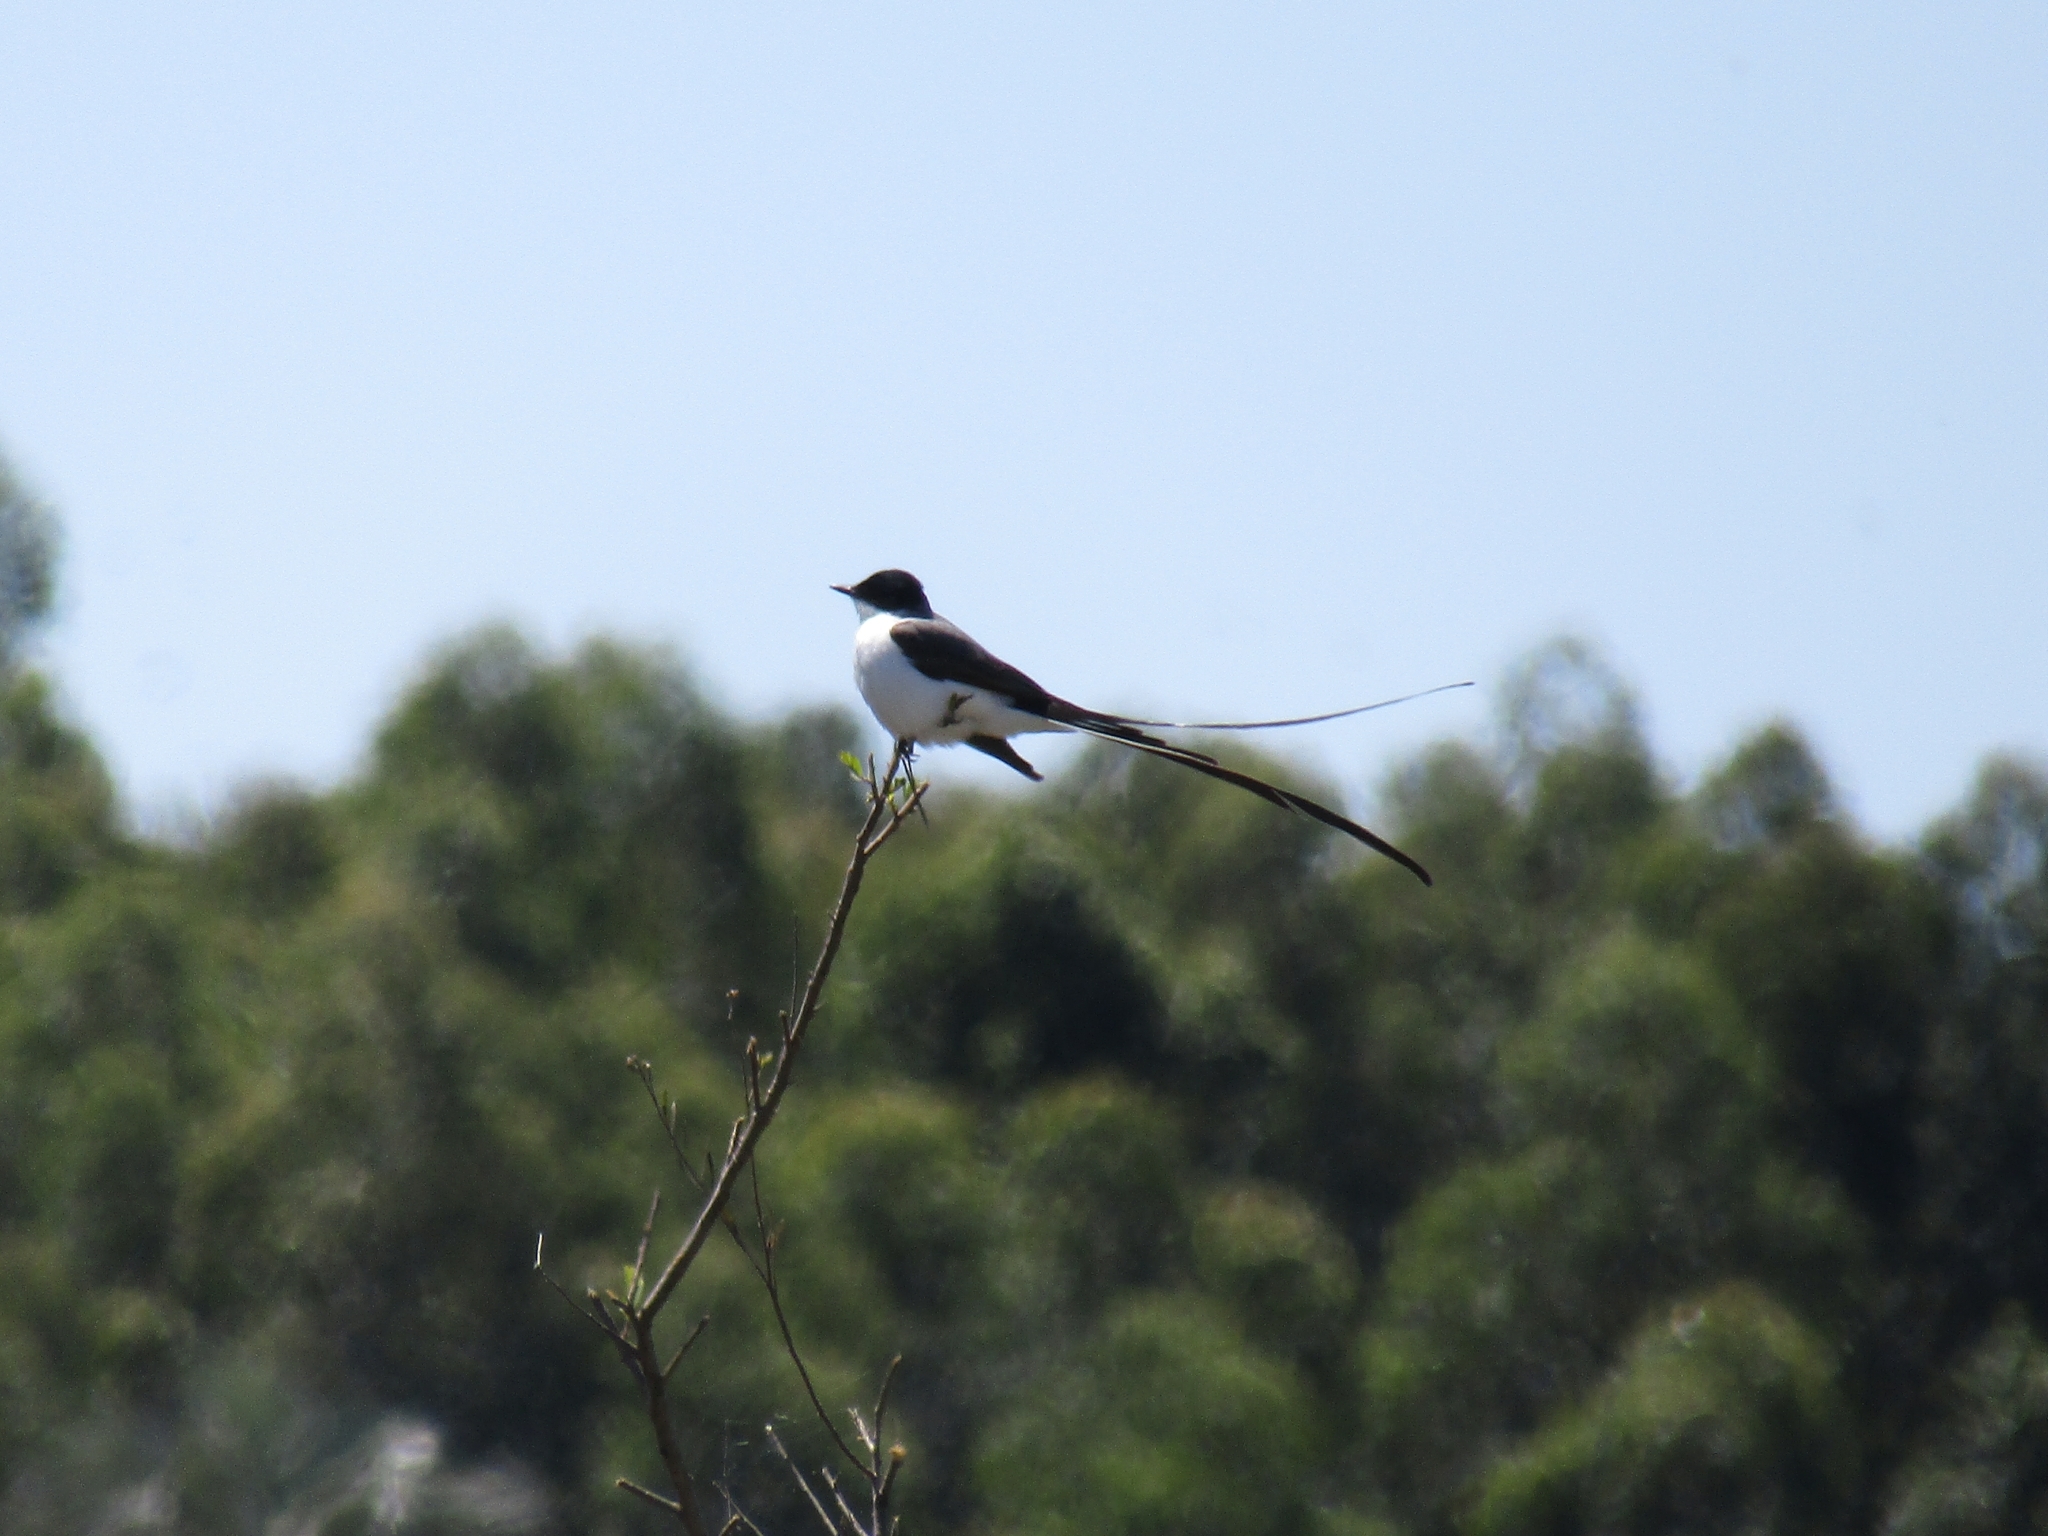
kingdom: Animalia
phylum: Chordata
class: Aves
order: Passeriformes
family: Tyrannidae
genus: Tyrannus
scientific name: Tyrannus savana
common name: Fork-tailed flycatcher
